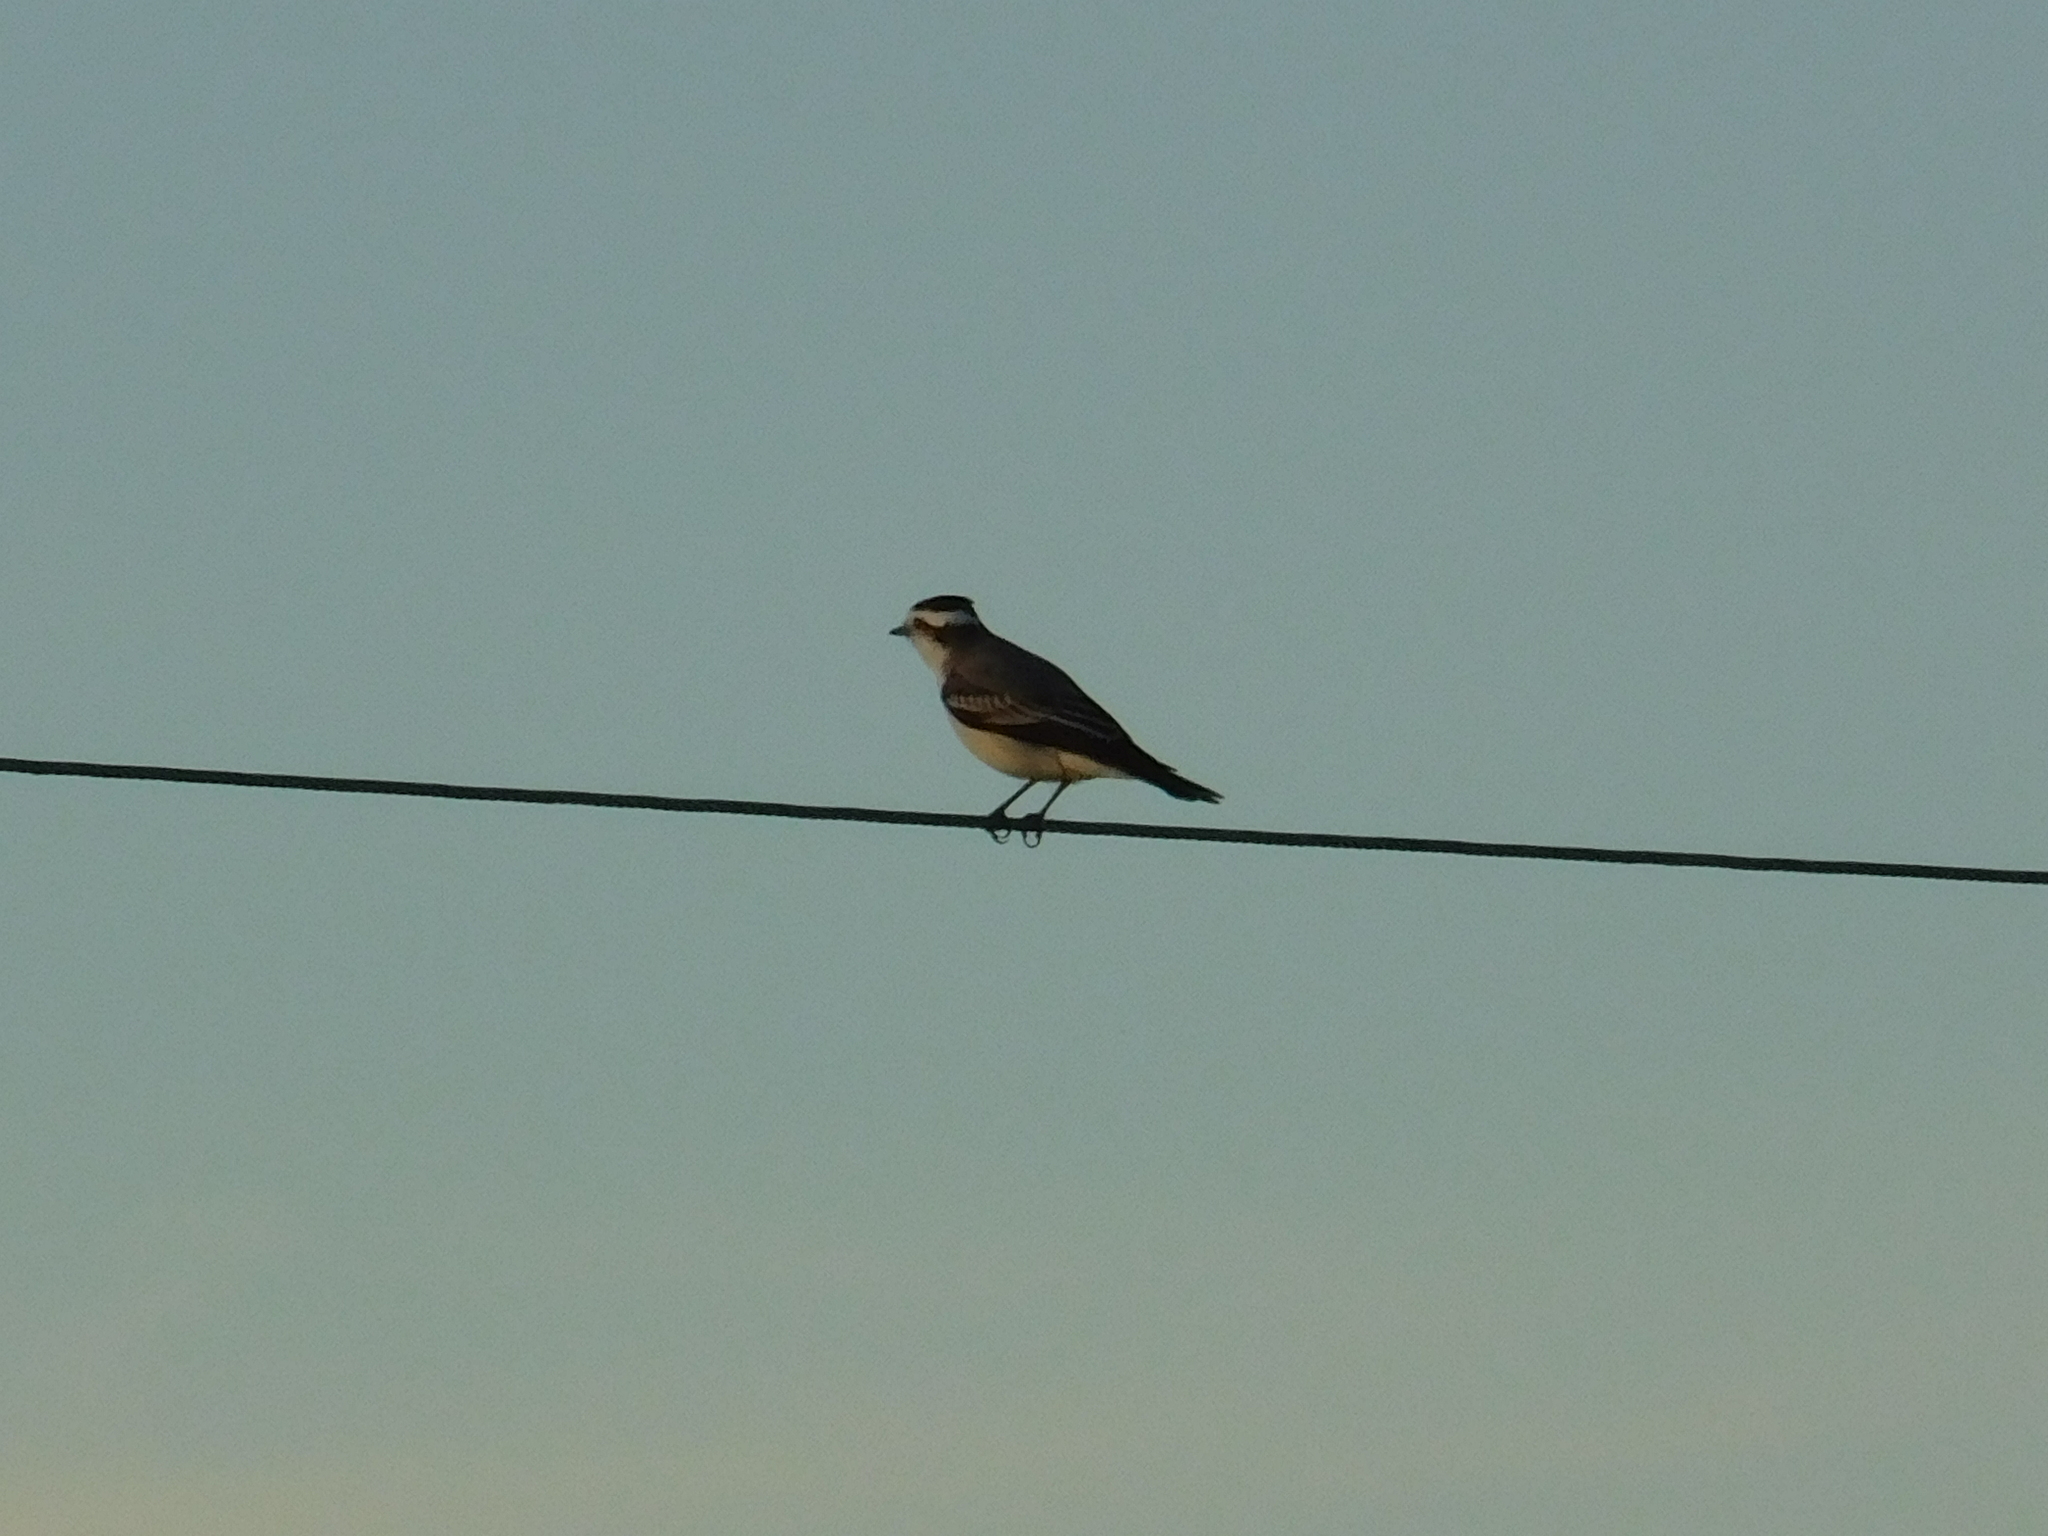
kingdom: Animalia
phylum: Chordata
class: Aves
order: Passeriformes
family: Tyrannidae
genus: Xolmis
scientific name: Xolmis coronatus
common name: Black-crowned monjita
